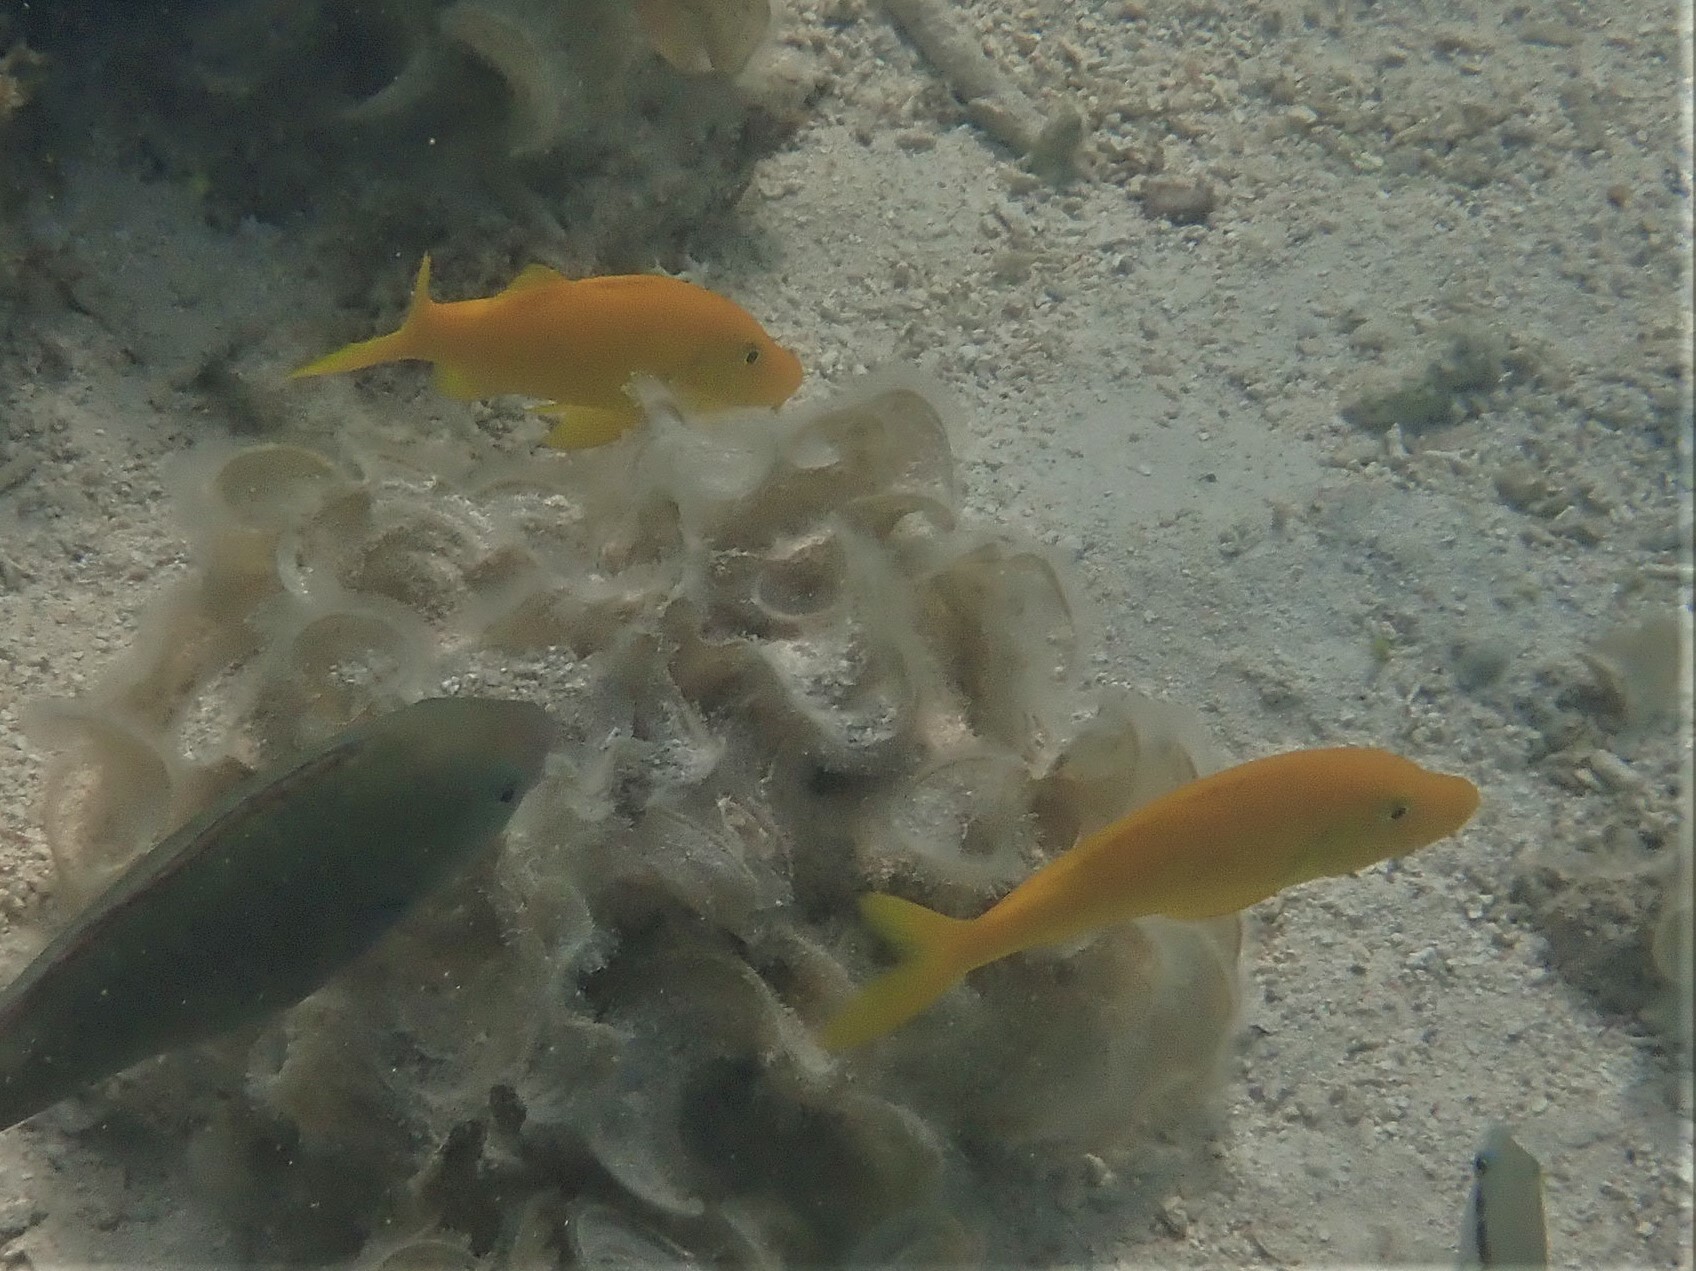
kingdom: Animalia
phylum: Chordata
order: Perciformes
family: Mullidae
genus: Parupeneus
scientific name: Parupeneus cyclostomus
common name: Goldsaddle goatfish
